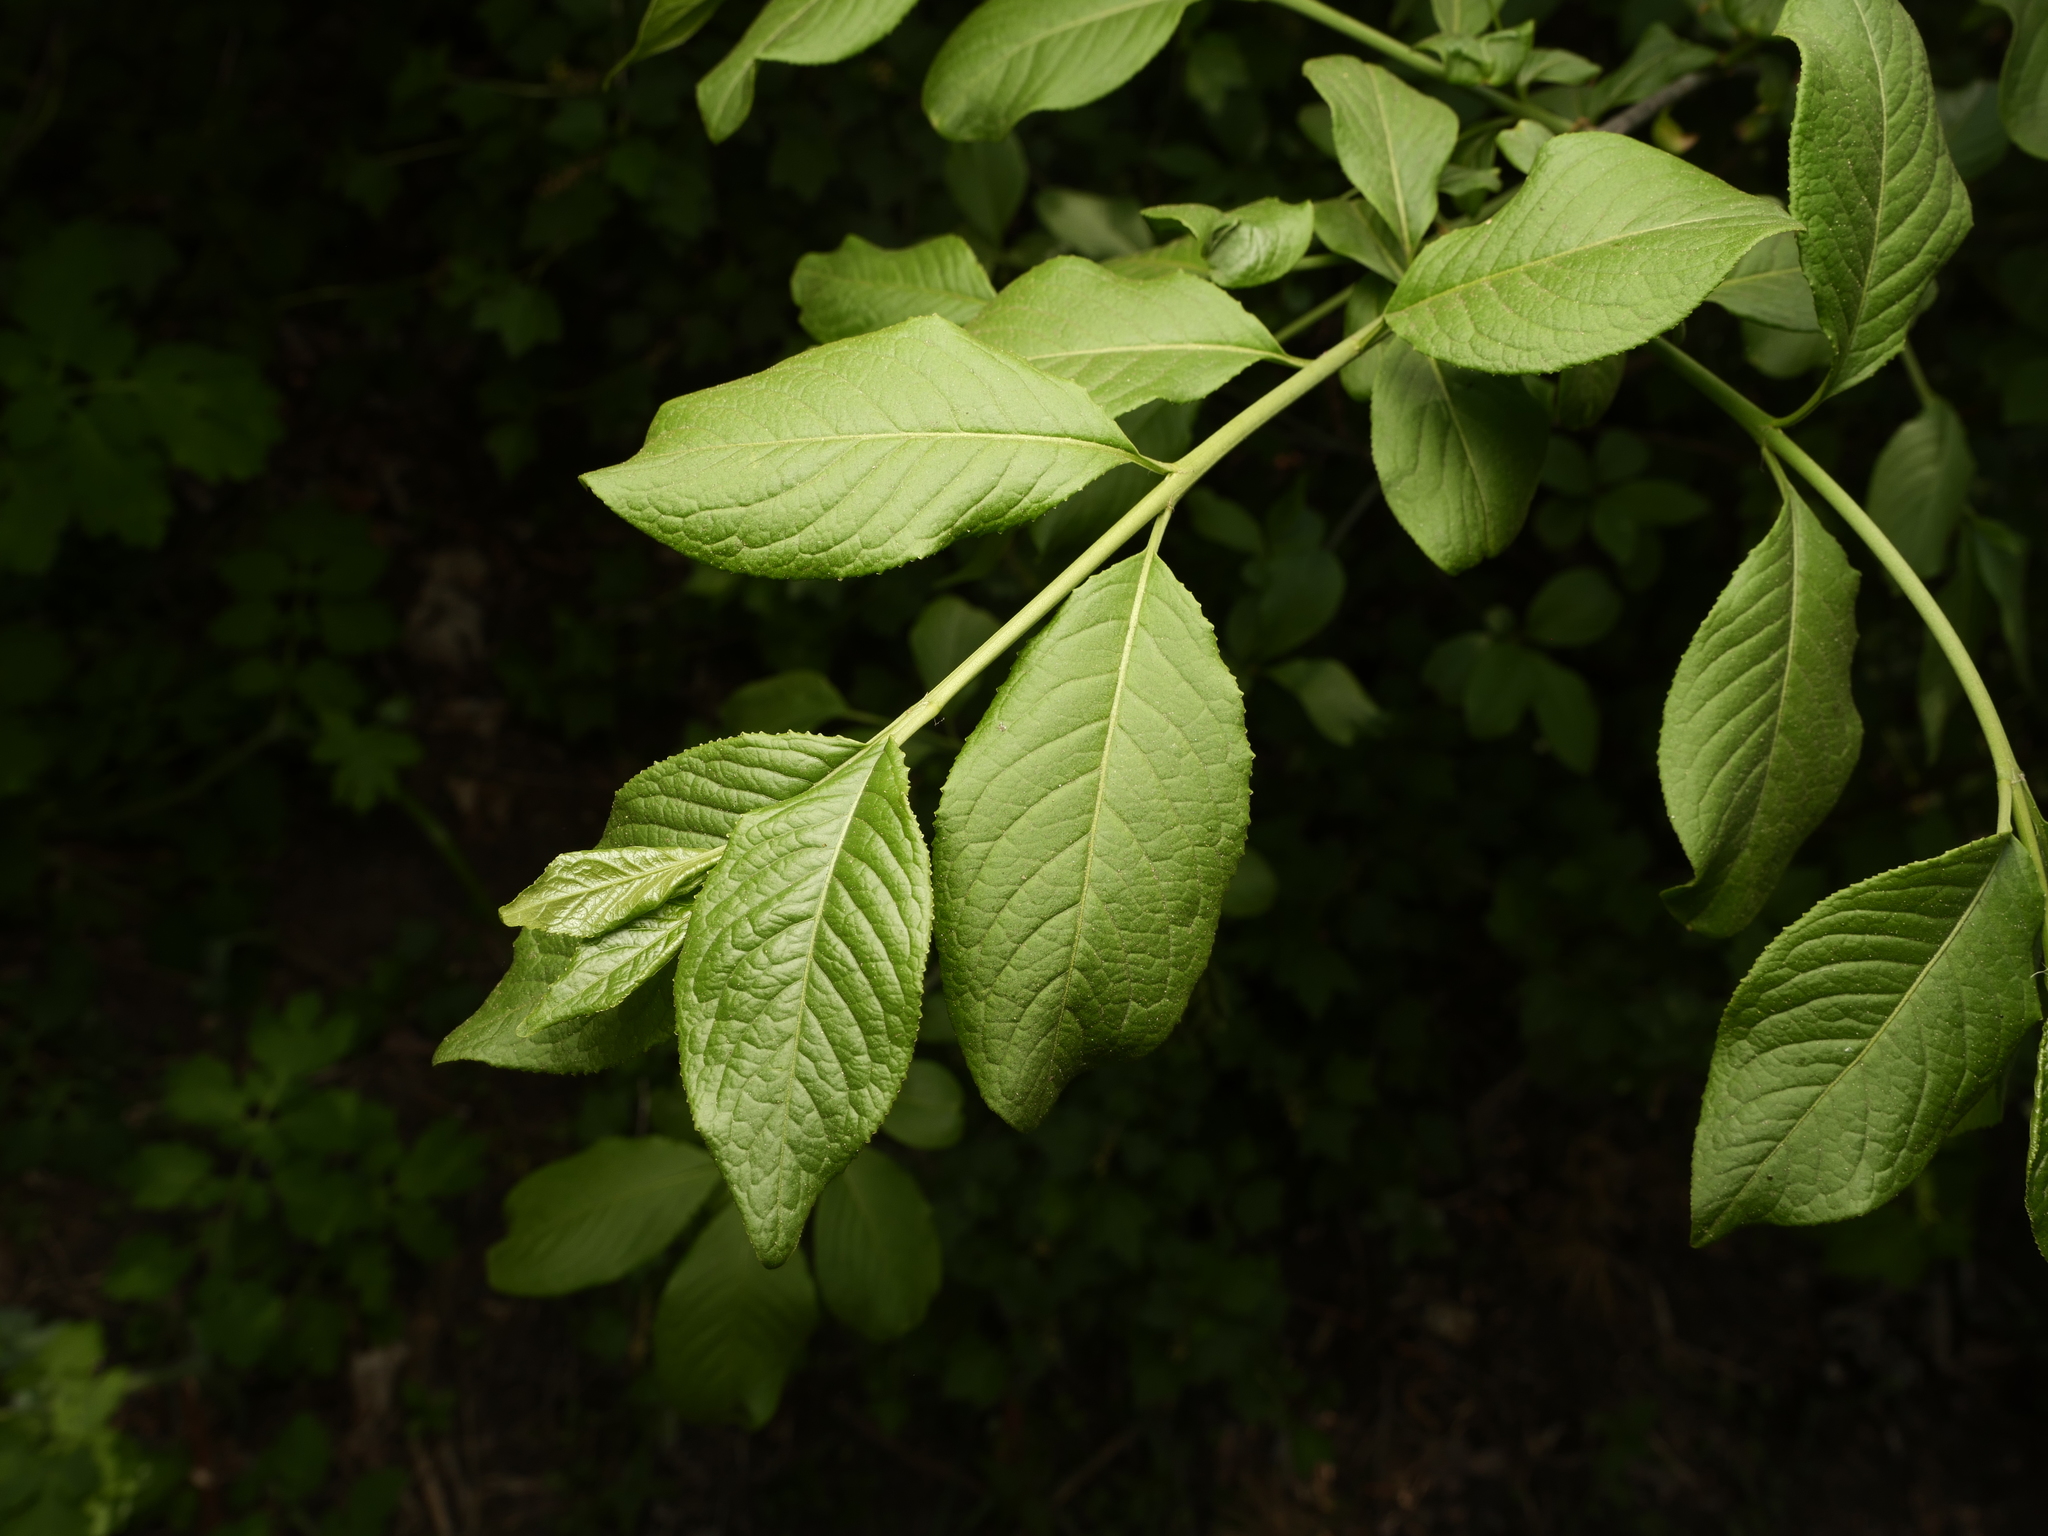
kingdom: Plantae
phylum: Tracheophyta
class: Magnoliopsida
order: Celastrales
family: Celastraceae
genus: Euonymus
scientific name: Euonymus europaeus
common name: Spindle
